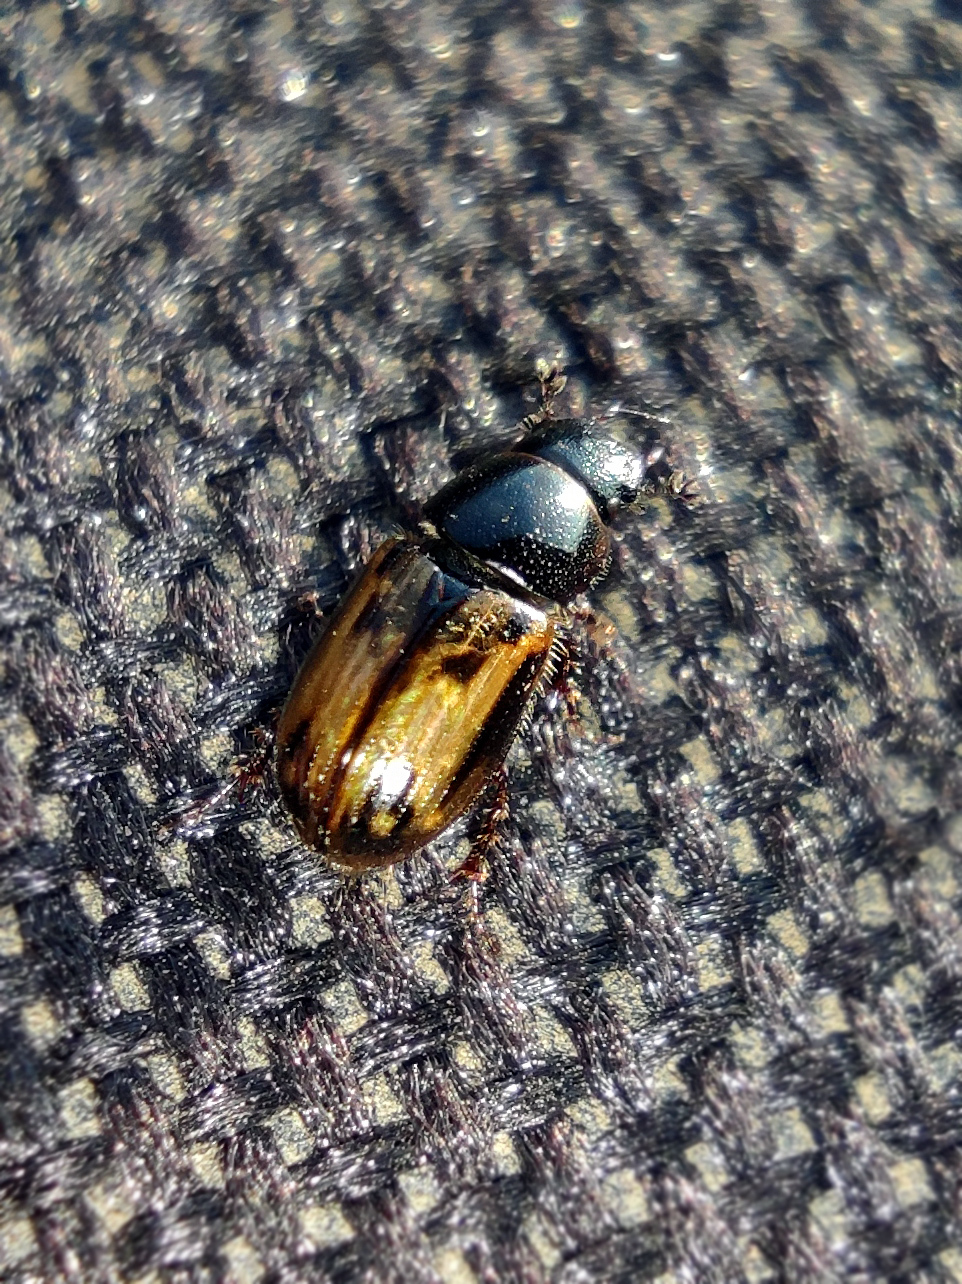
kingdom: Animalia
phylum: Arthropoda
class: Insecta
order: Coleoptera
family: Scarabaeidae
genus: Chilothorax
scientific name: Chilothorax distinctus
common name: Maculated dung beetle
